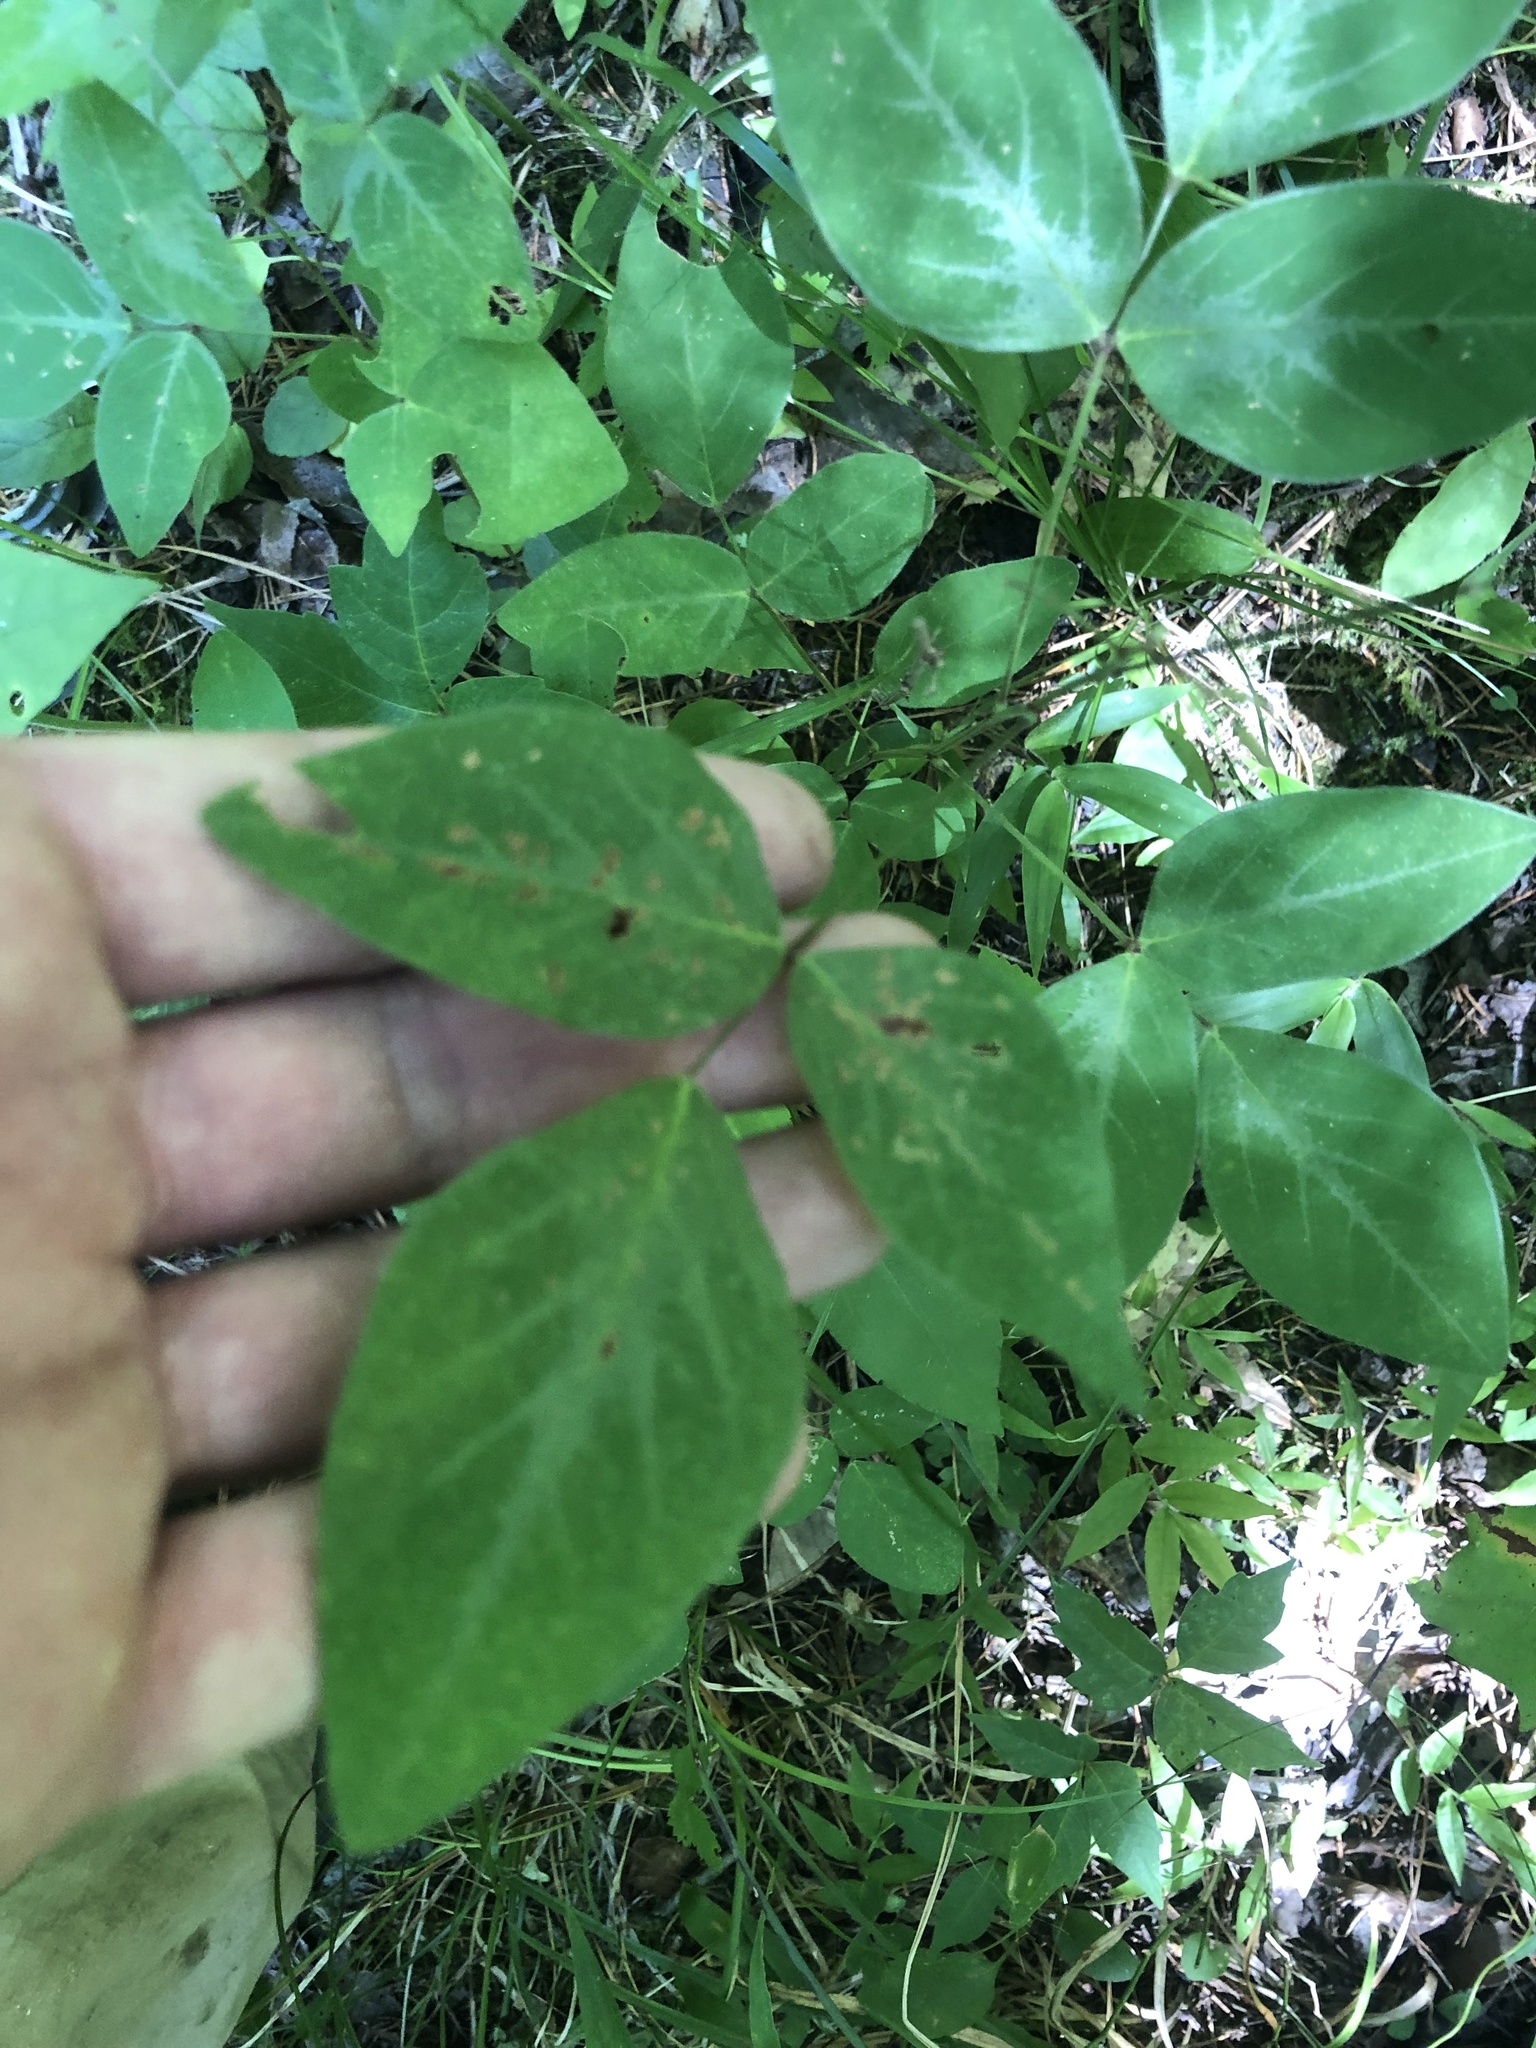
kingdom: Plantae
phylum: Tracheophyta
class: Magnoliopsida
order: Fabales
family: Fabaceae
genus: Desmodium
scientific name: Desmodium glabellum
